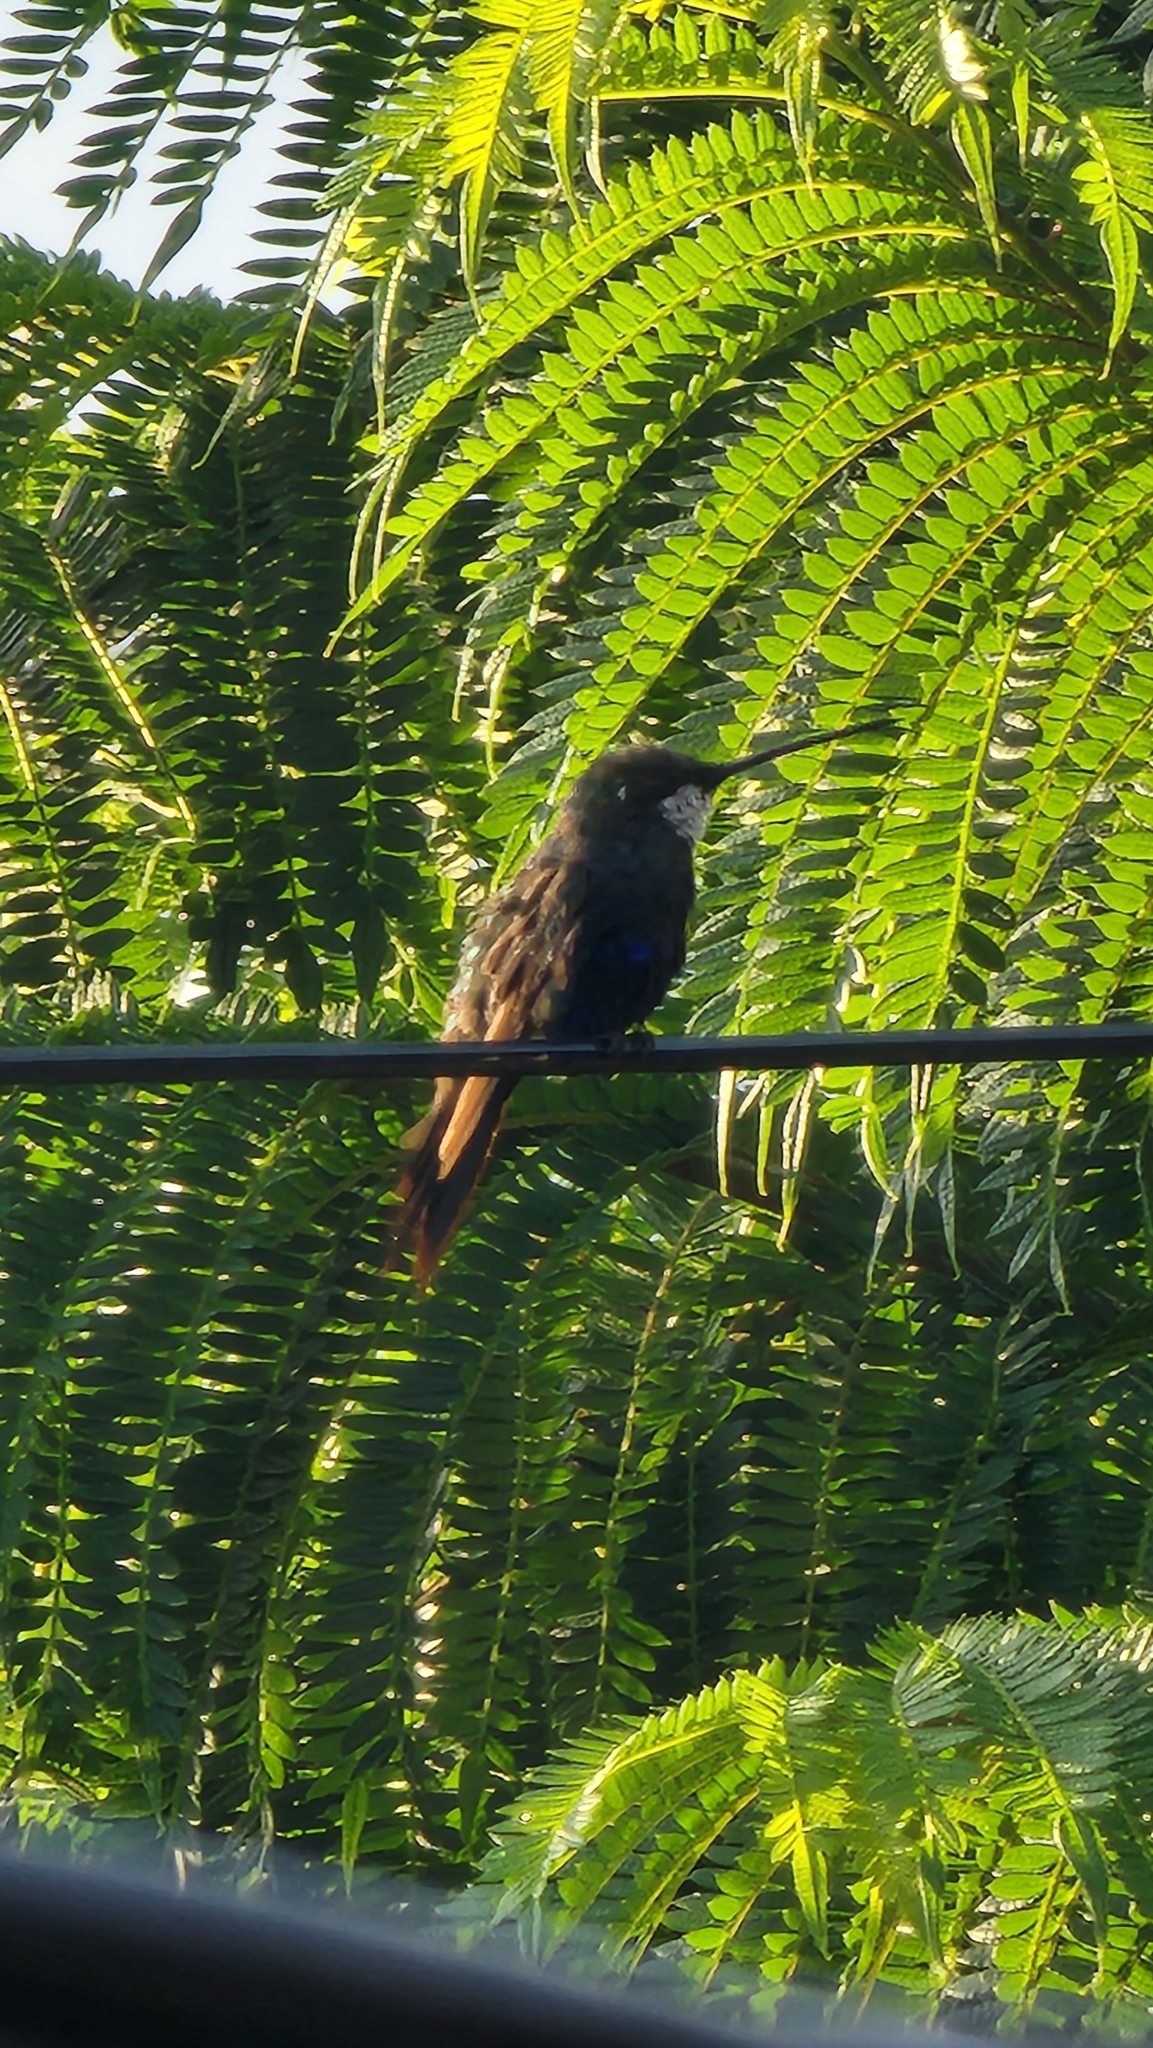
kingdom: Animalia
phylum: Chordata
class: Aves
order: Apodiformes
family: Trochilidae
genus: Heliomaster
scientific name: Heliomaster furcifer
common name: Blue-tufted starthroat
